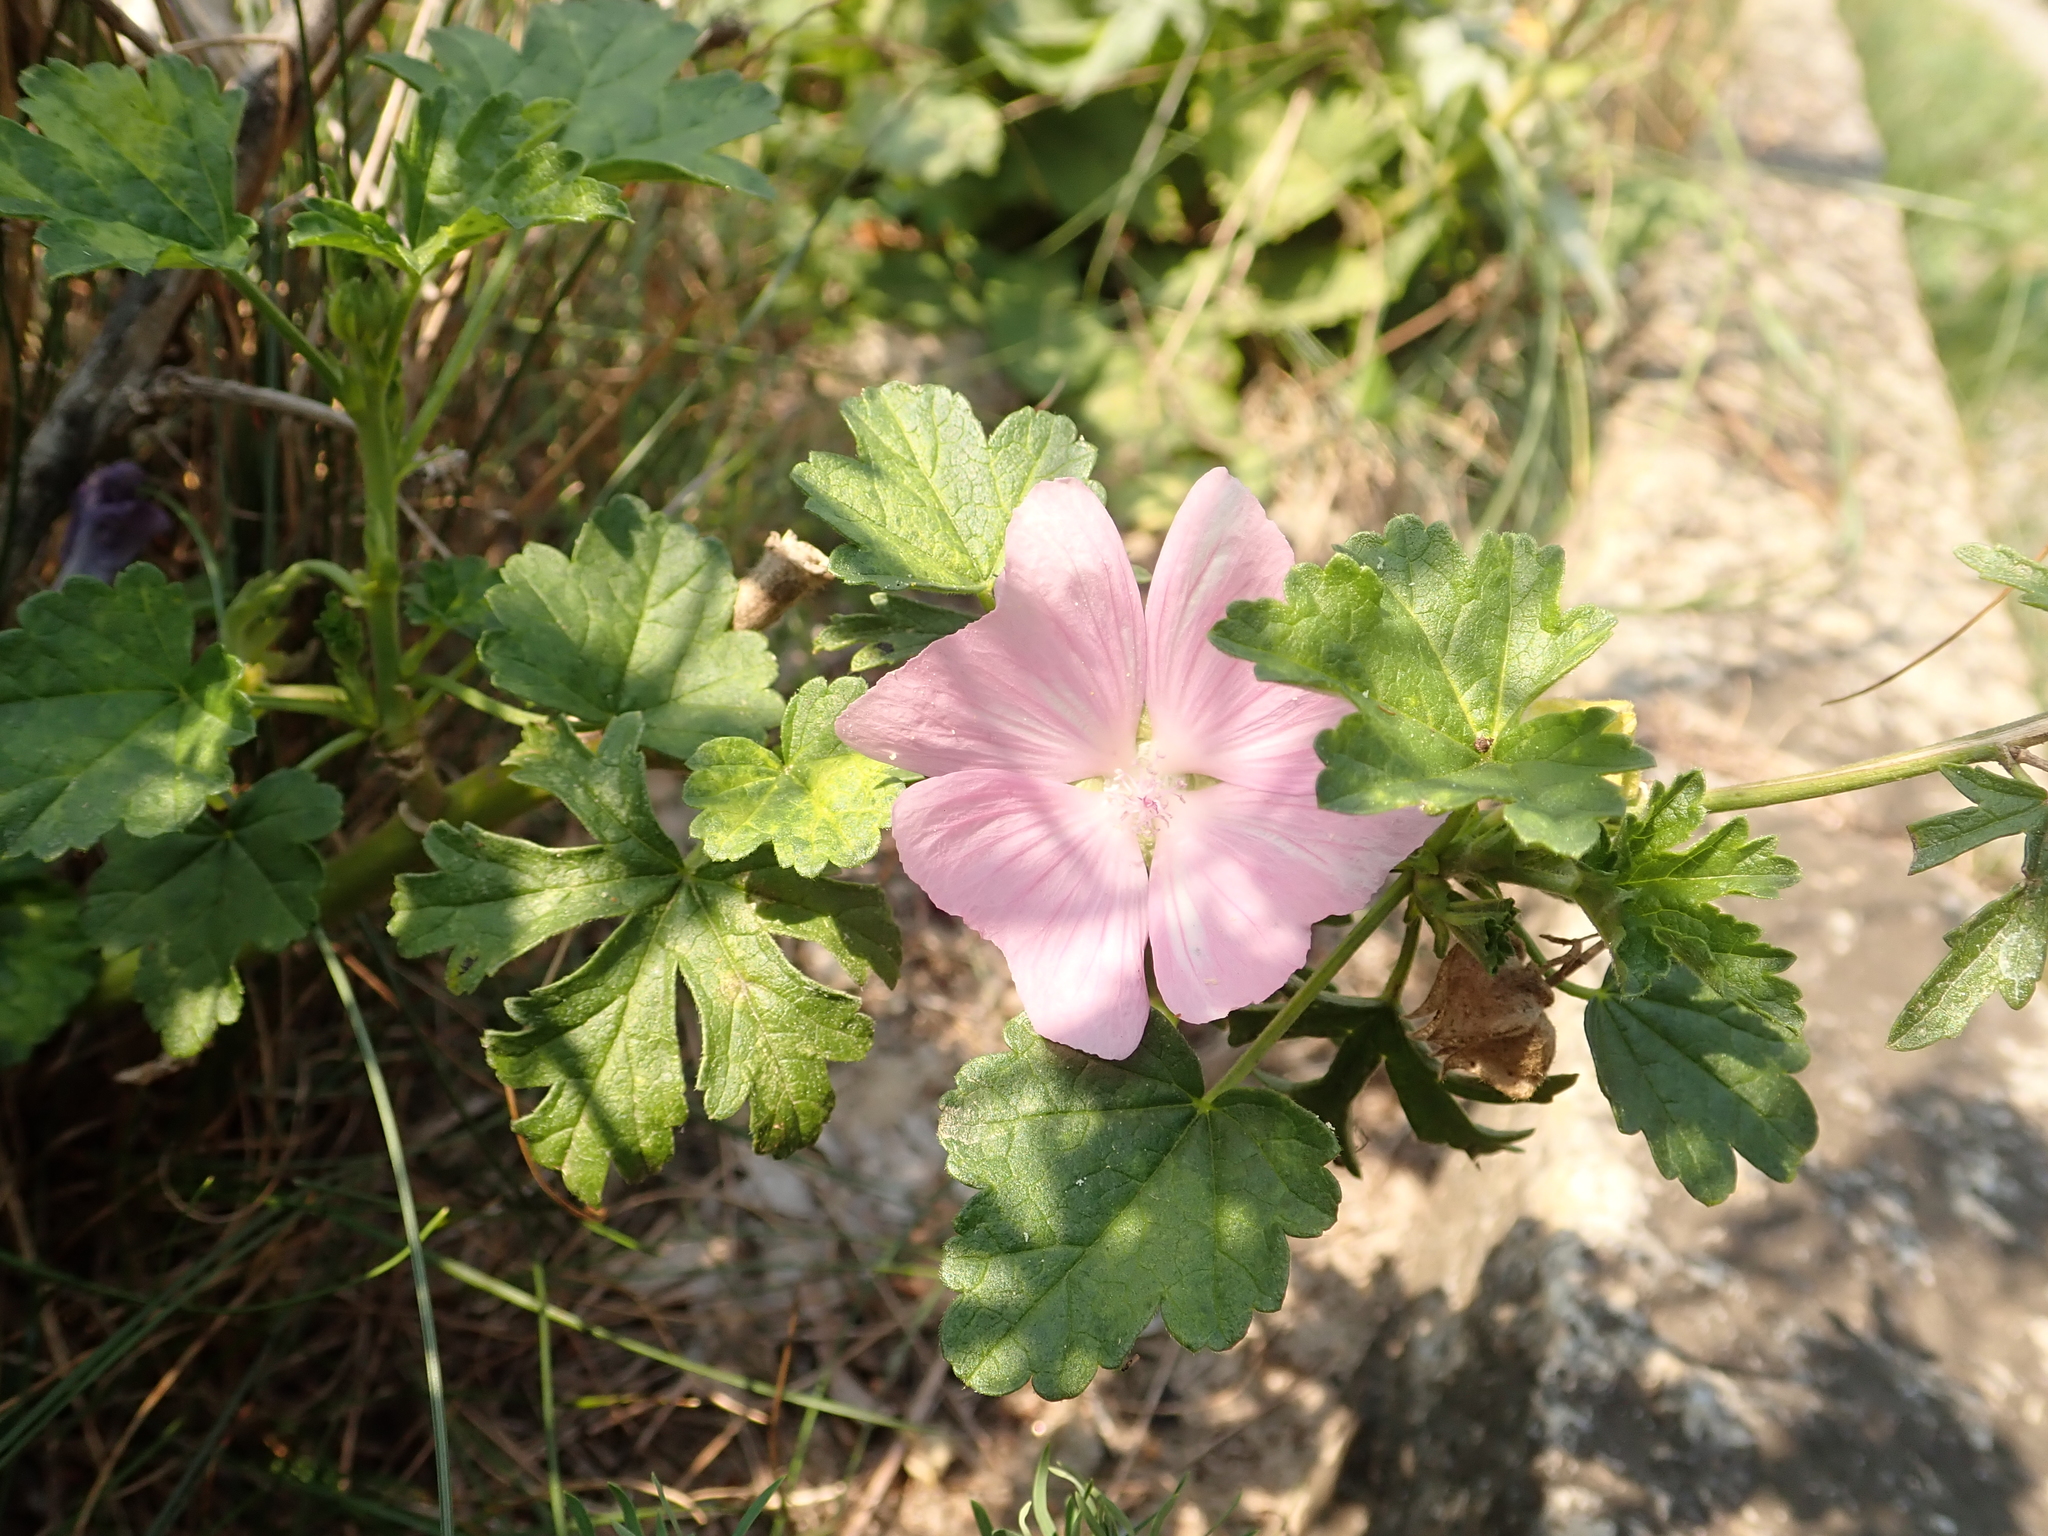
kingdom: Plantae
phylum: Tracheophyta
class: Magnoliopsida
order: Malvales
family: Malvaceae
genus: Malva
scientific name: Malva moschata
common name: Musk mallow
